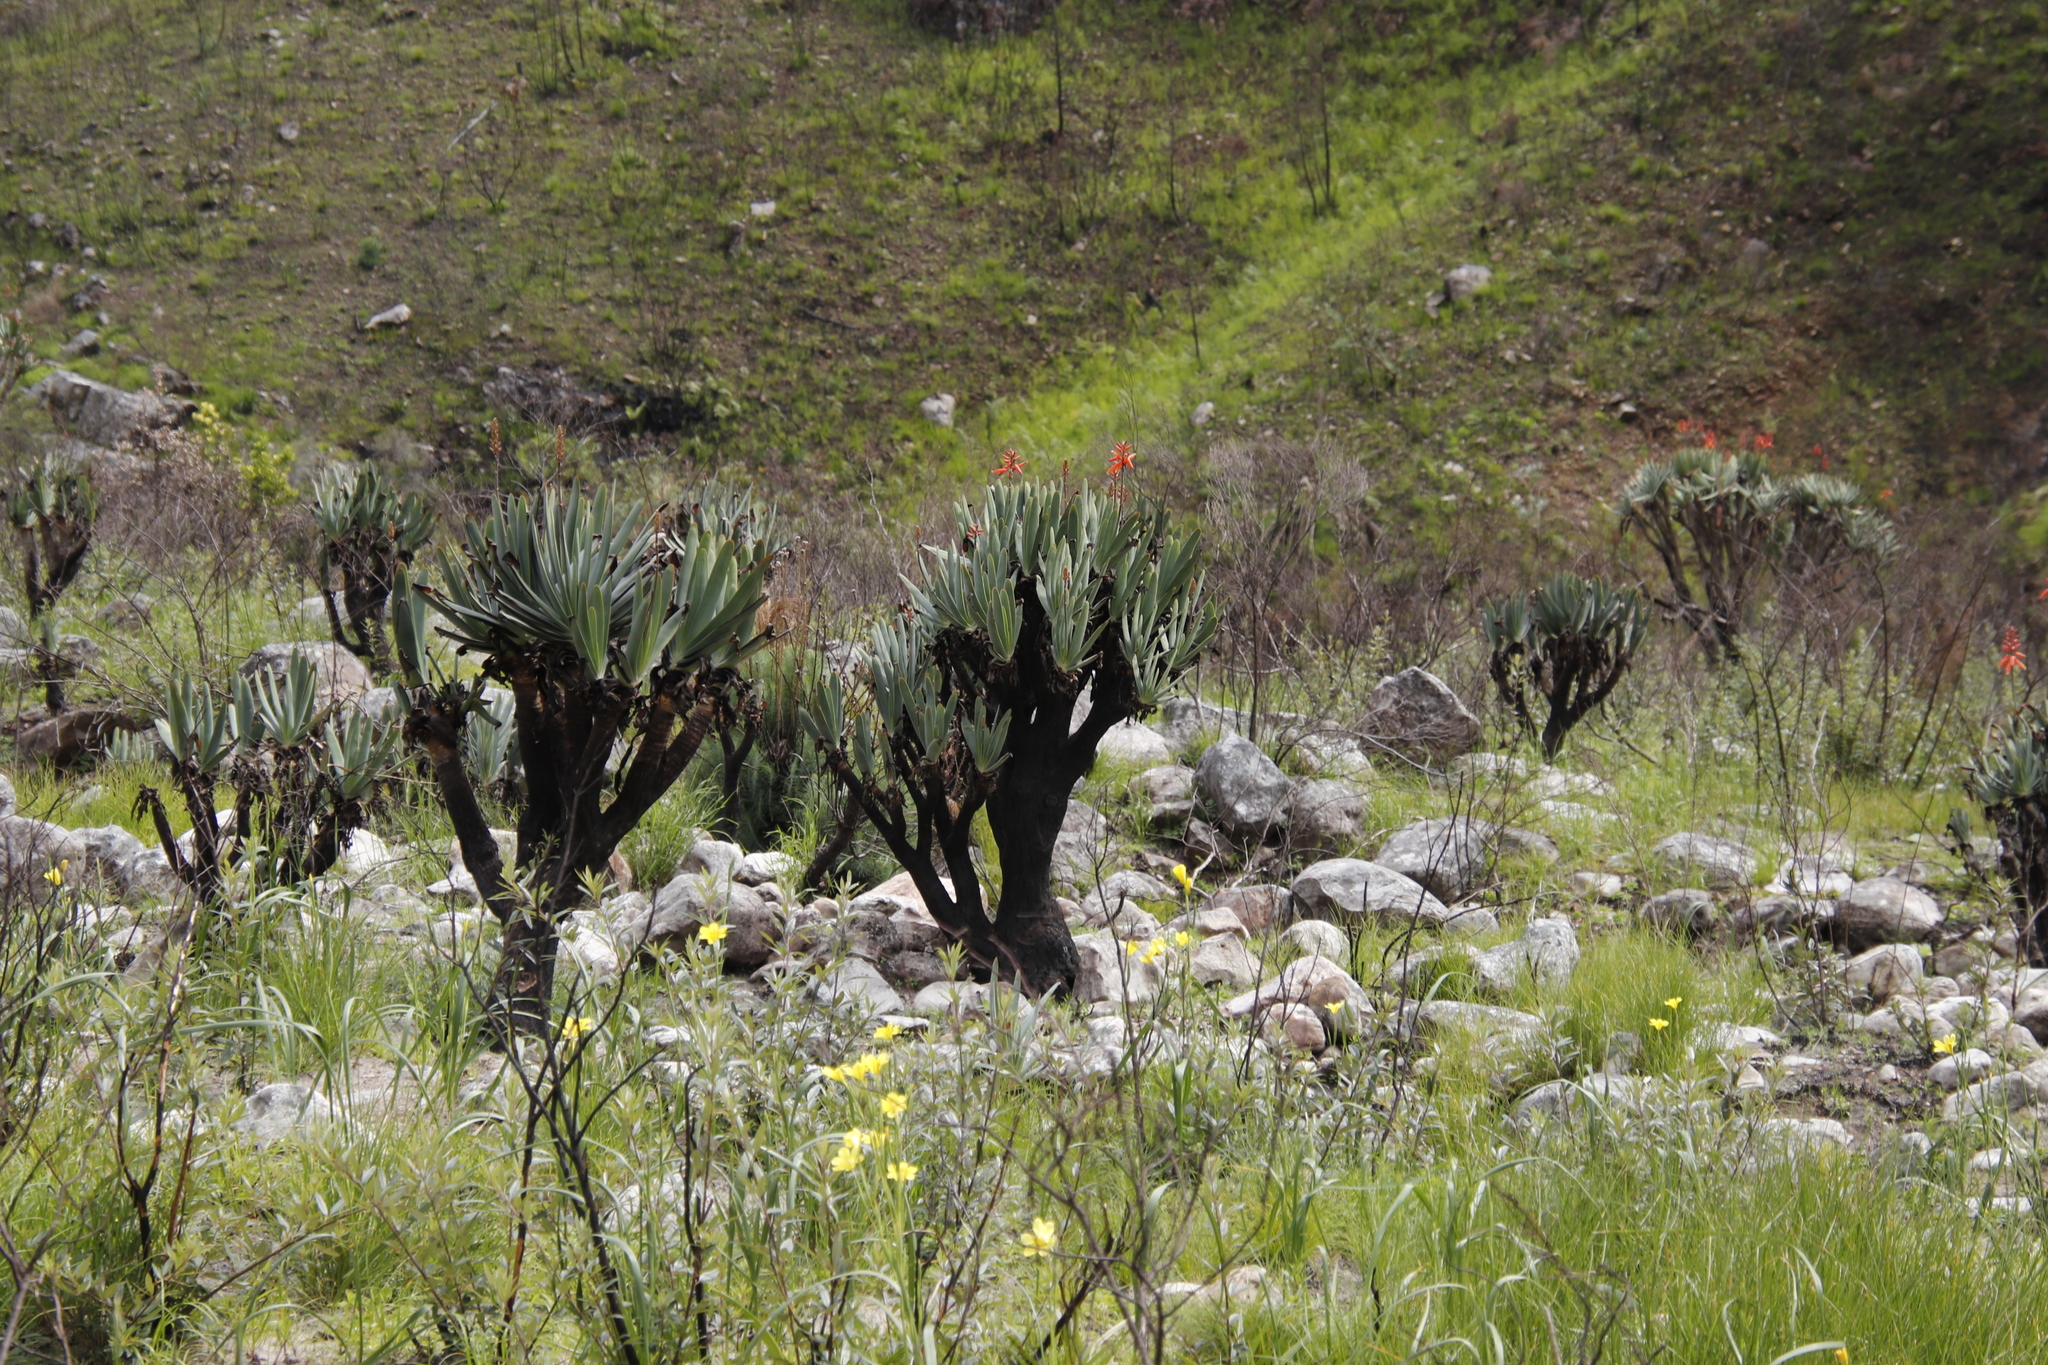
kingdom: Plantae
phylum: Tracheophyta
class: Liliopsida
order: Asparagales
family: Iridaceae
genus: Moraea
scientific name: Moraea ochroleuca
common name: Red tulp
